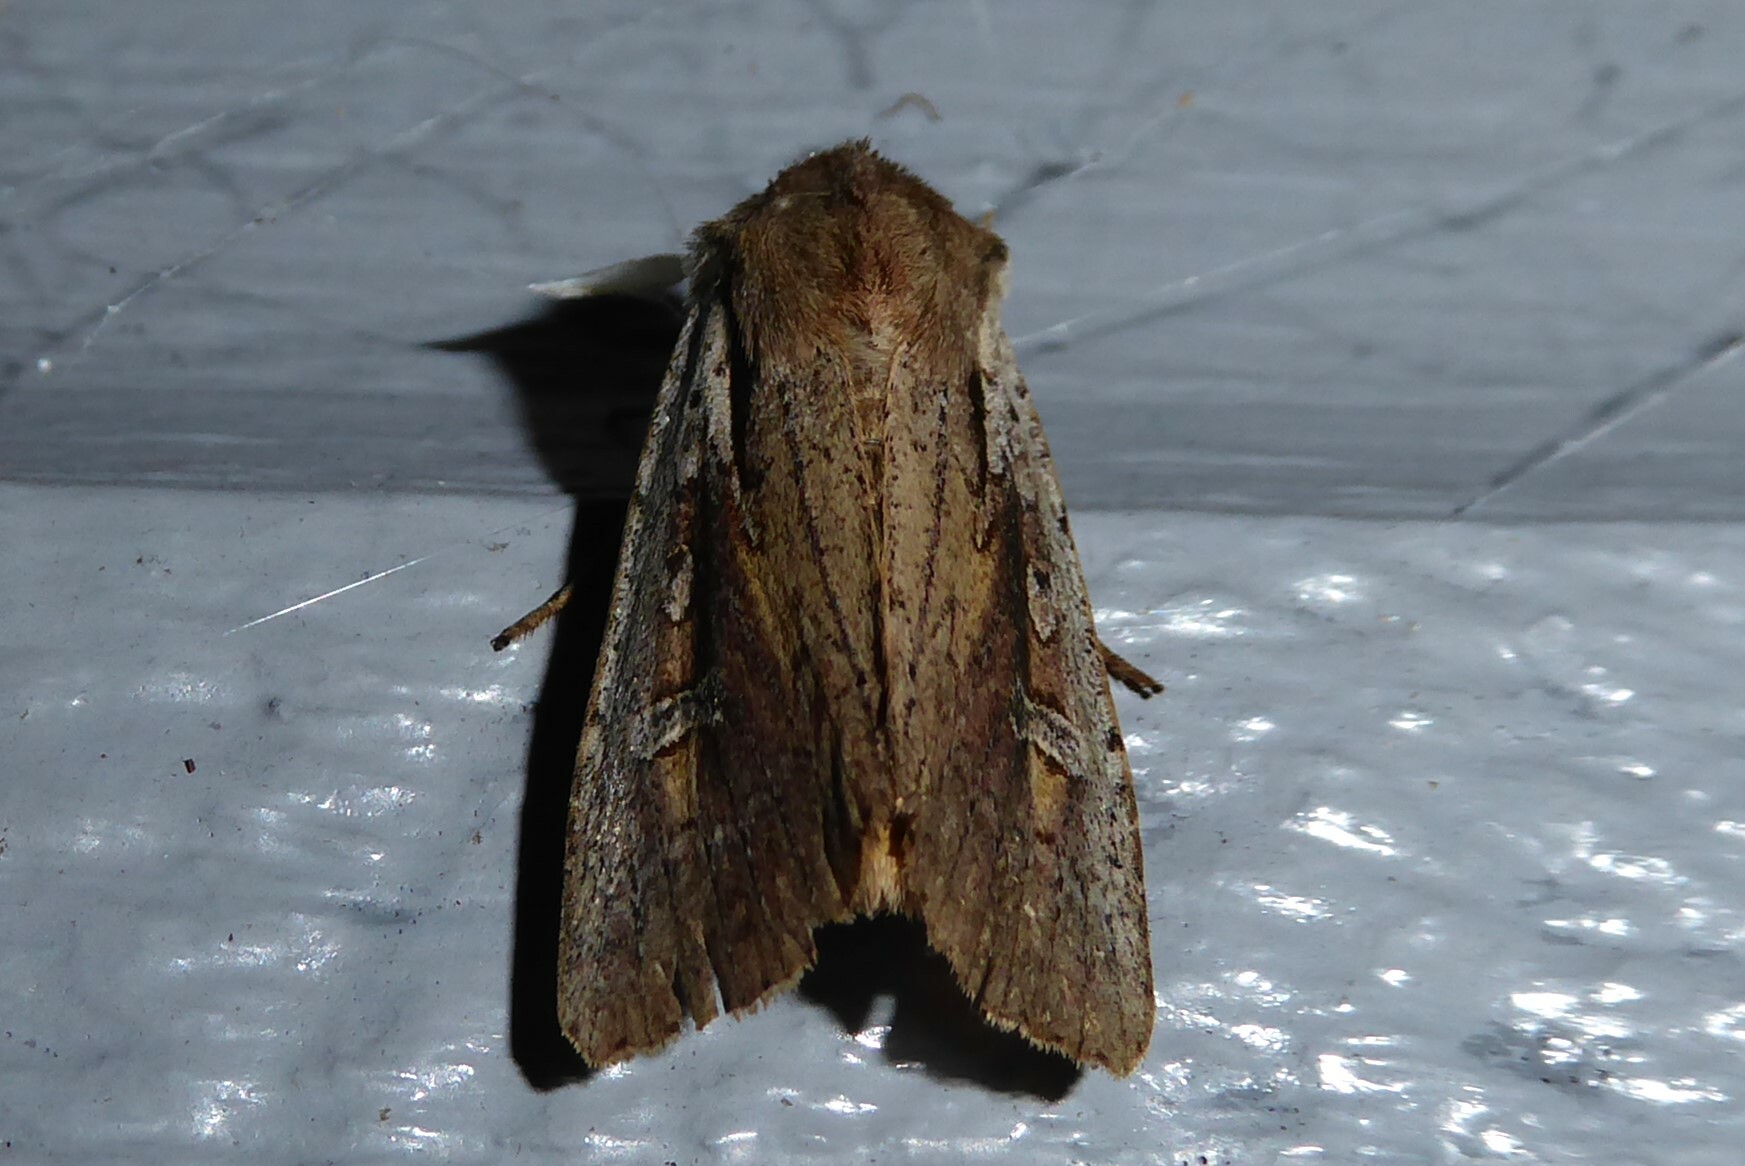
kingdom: Animalia
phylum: Arthropoda
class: Insecta
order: Lepidoptera
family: Noctuidae
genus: Ichneutica
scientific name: Ichneutica atristriga
